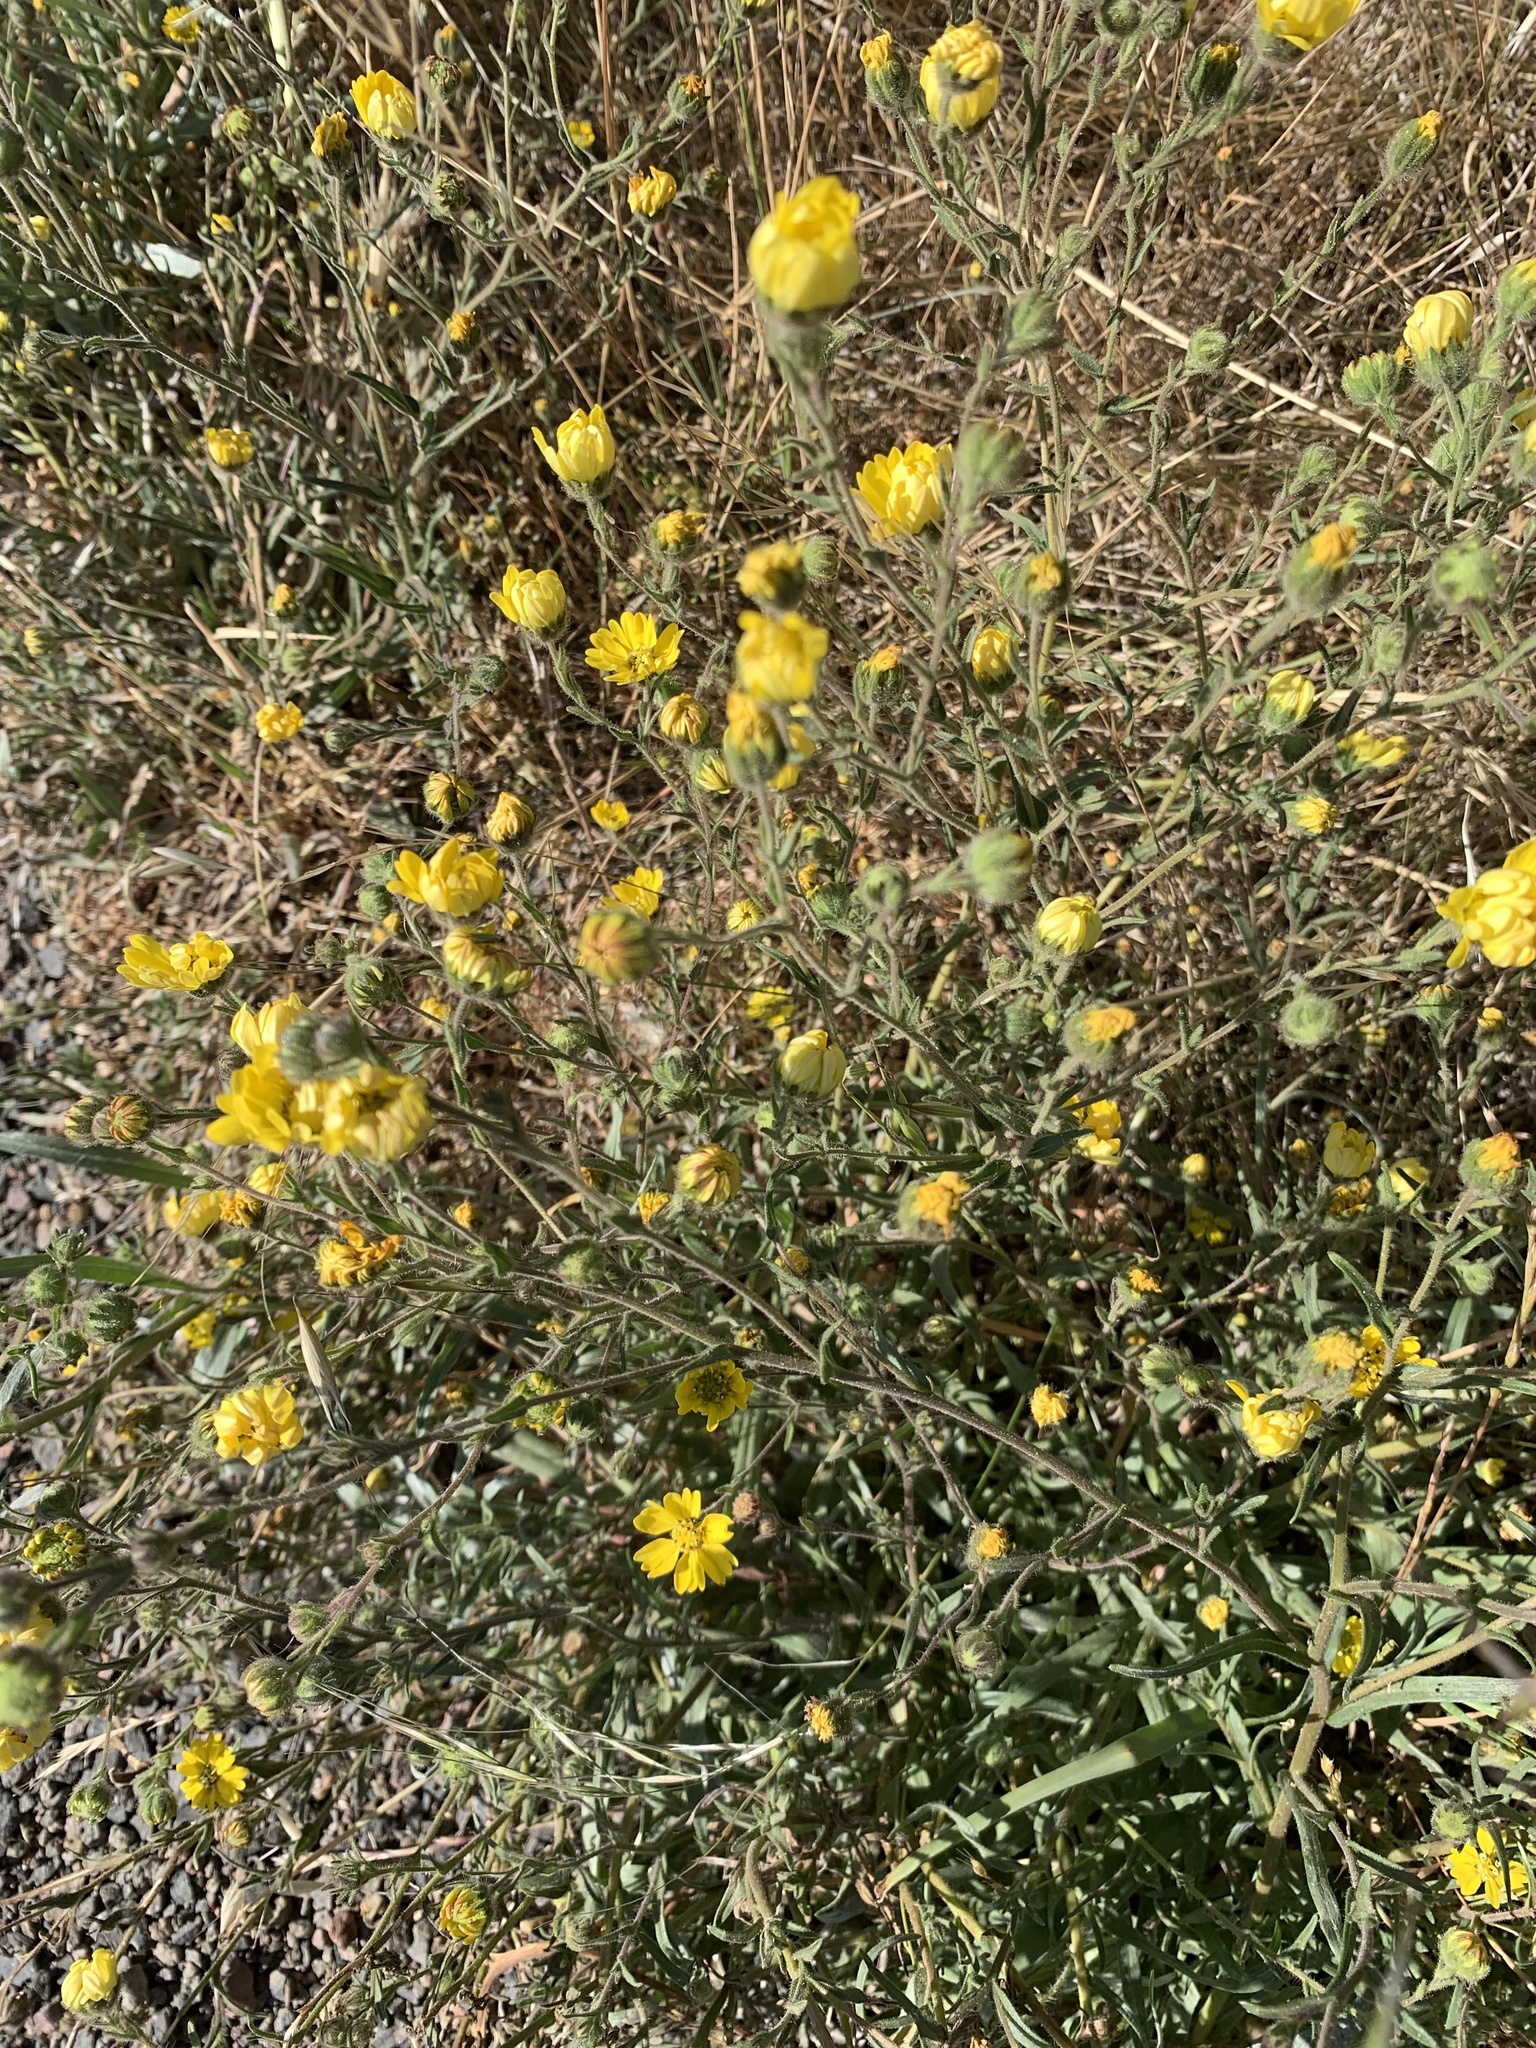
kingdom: Plantae
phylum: Tracheophyta
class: Magnoliopsida
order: Asterales
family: Asteraceae
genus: Hemizonia
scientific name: Hemizonia congesta
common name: Hayfield tarweed
